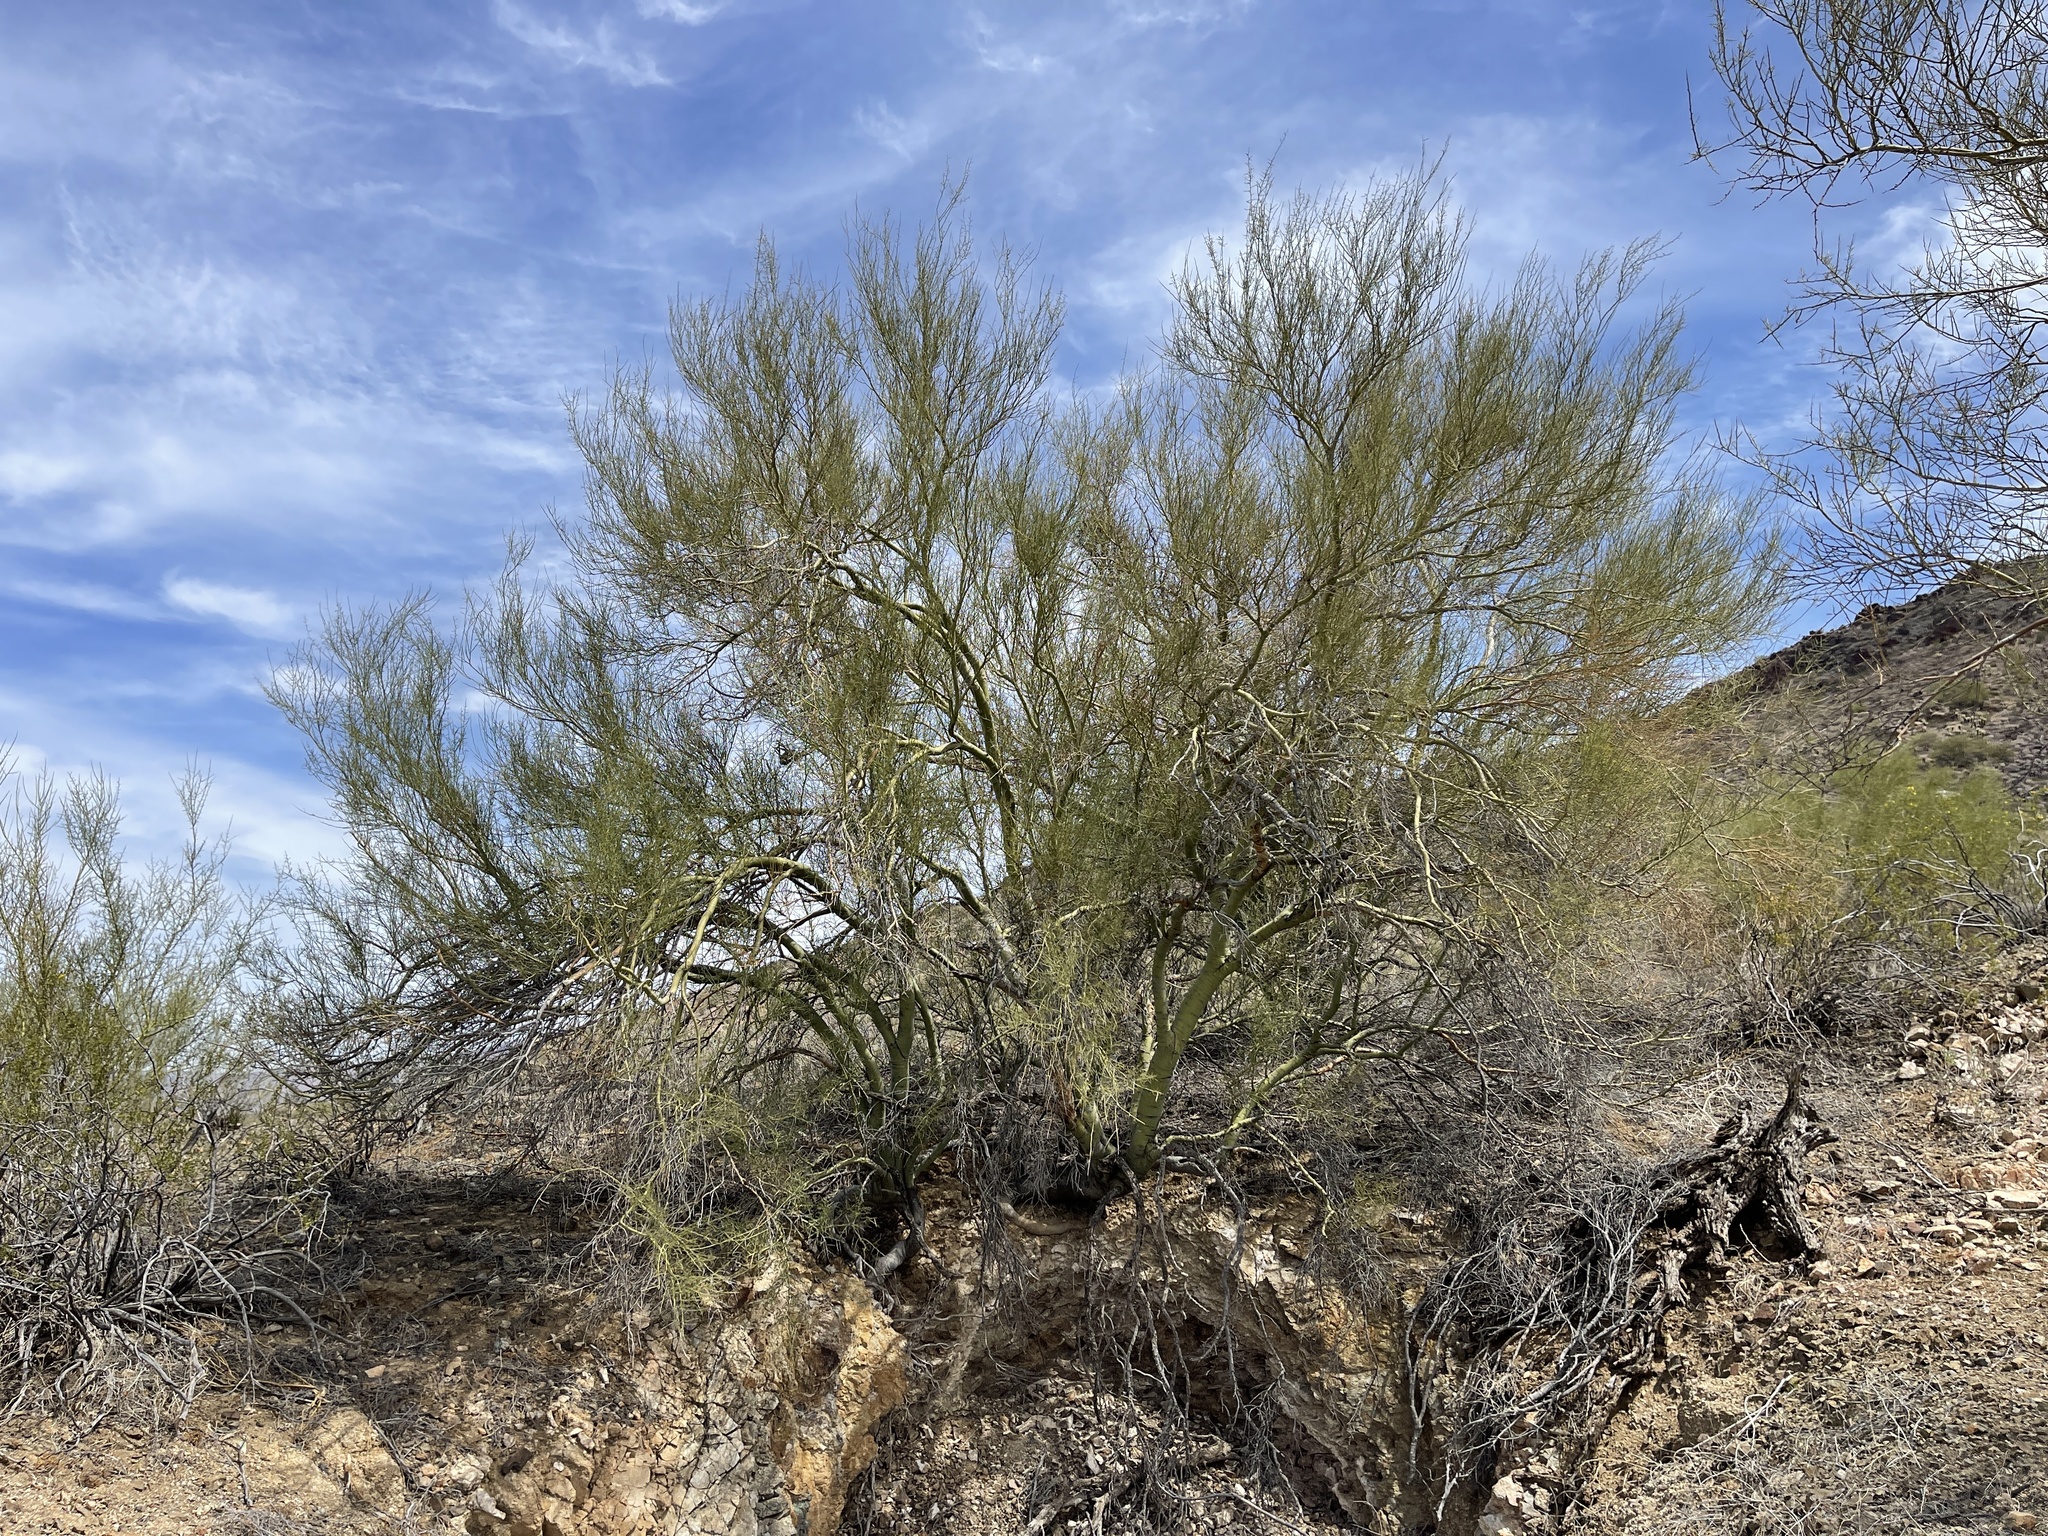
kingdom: Plantae
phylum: Tracheophyta
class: Magnoliopsida
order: Fabales
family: Fabaceae
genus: Parkinsonia
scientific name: Parkinsonia microphylla
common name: Yellow paloverde
